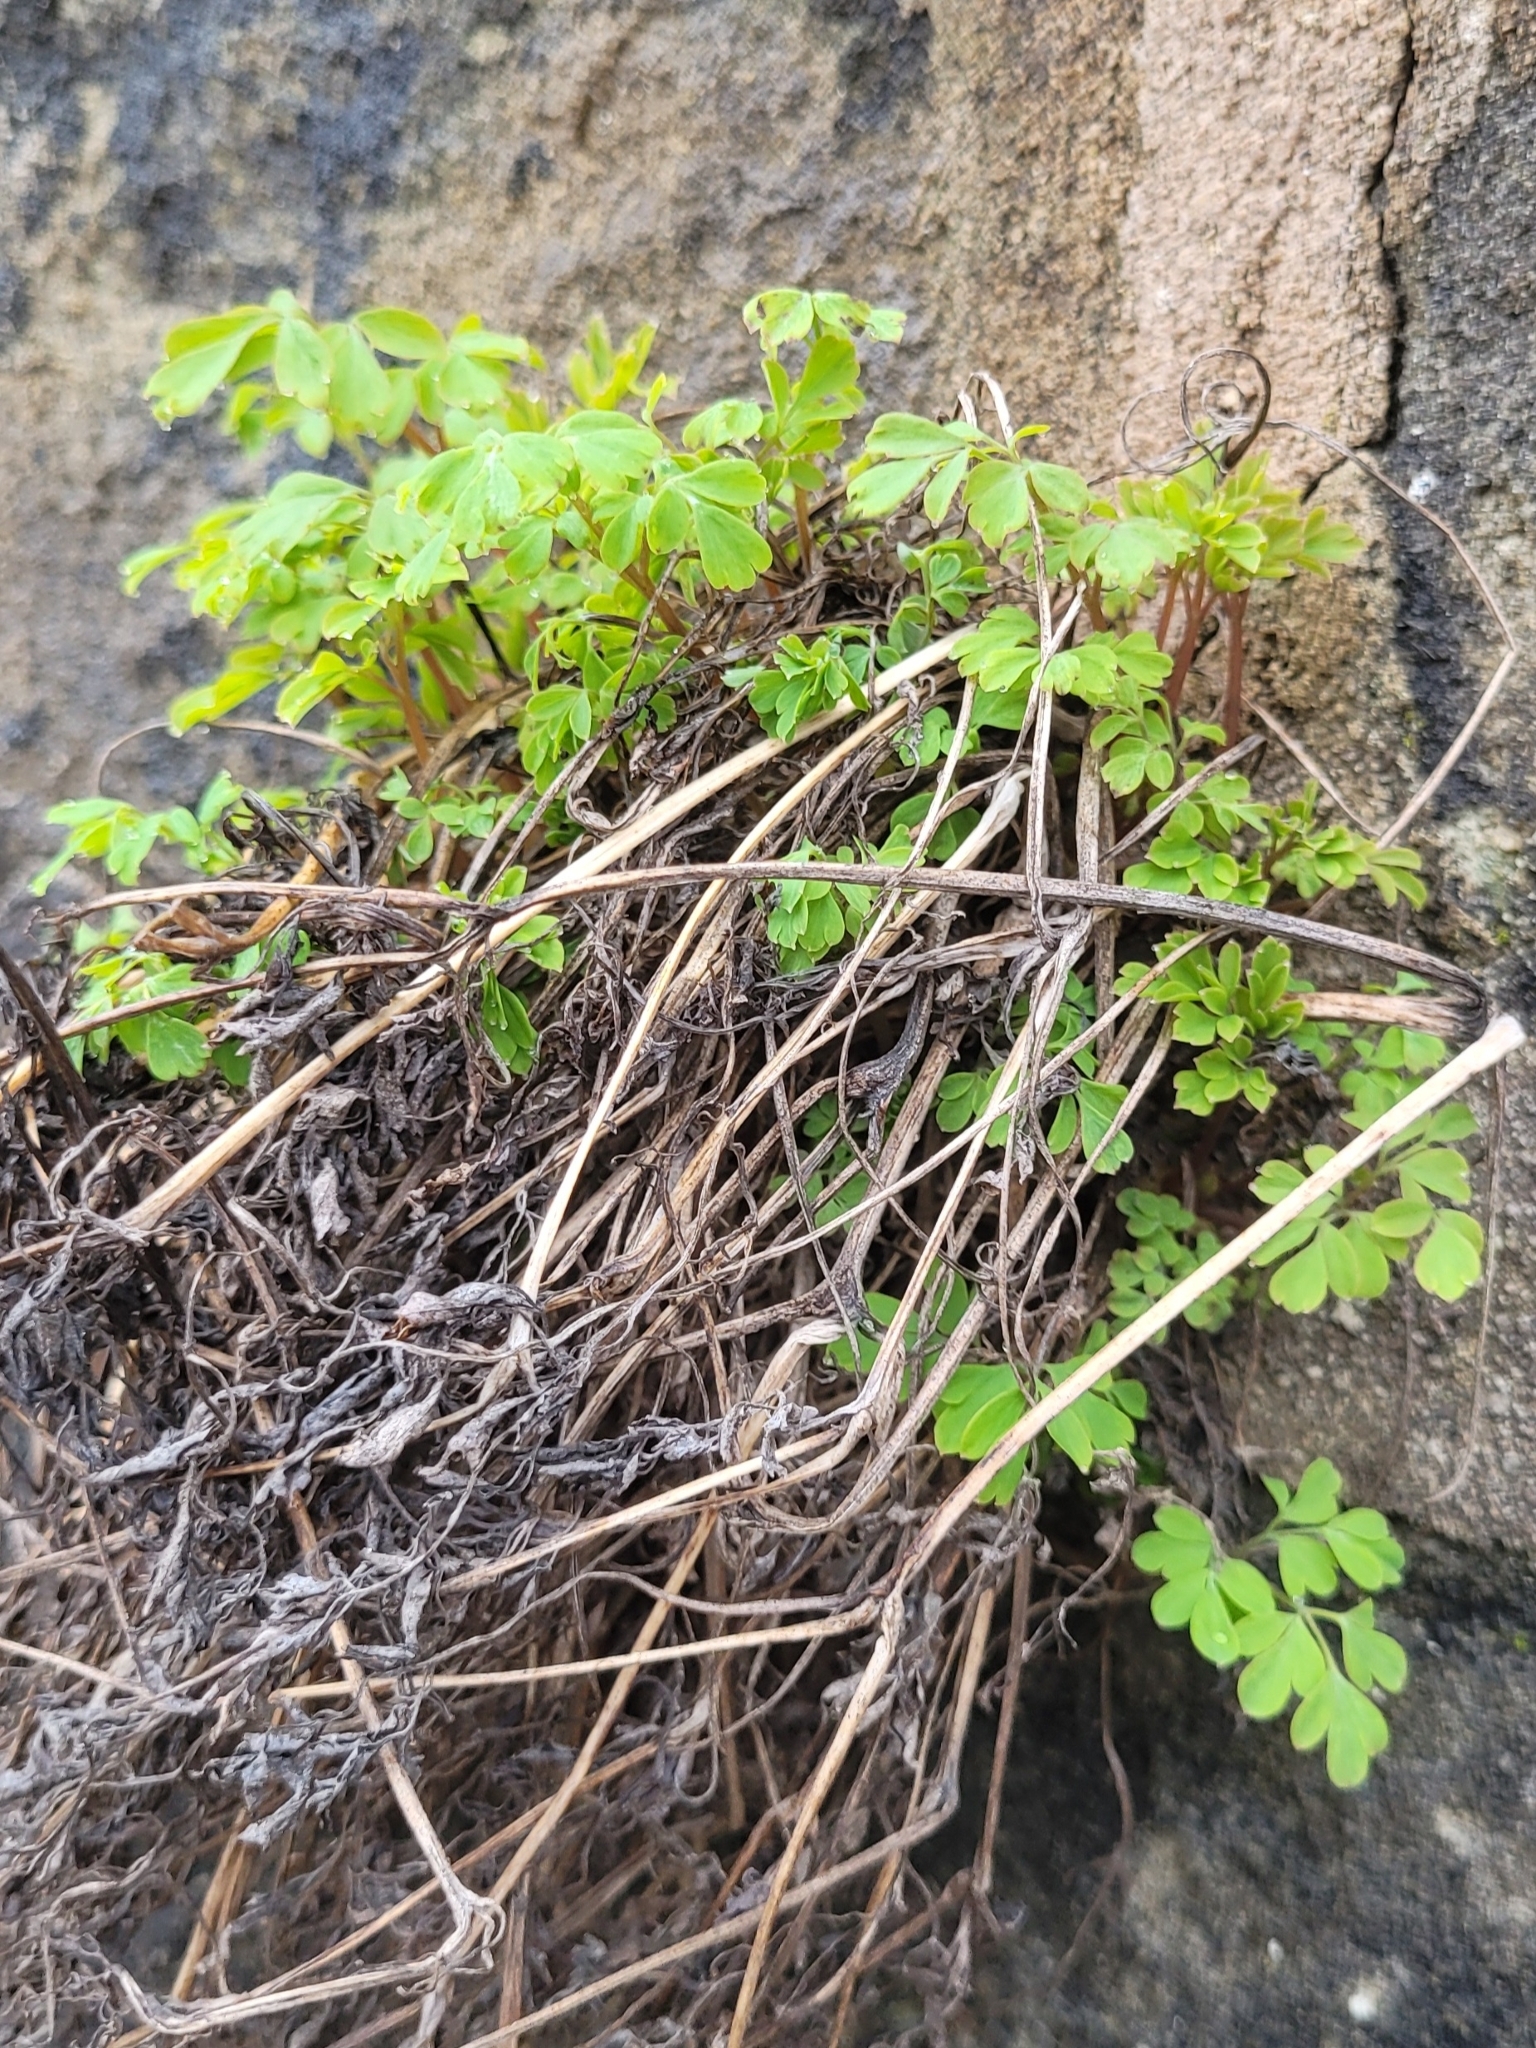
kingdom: Plantae
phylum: Tracheophyta
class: Magnoliopsida
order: Ranunculales
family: Papaveraceae
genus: Pseudofumaria
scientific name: Pseudofumaria lutea
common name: Yellow corydalis
